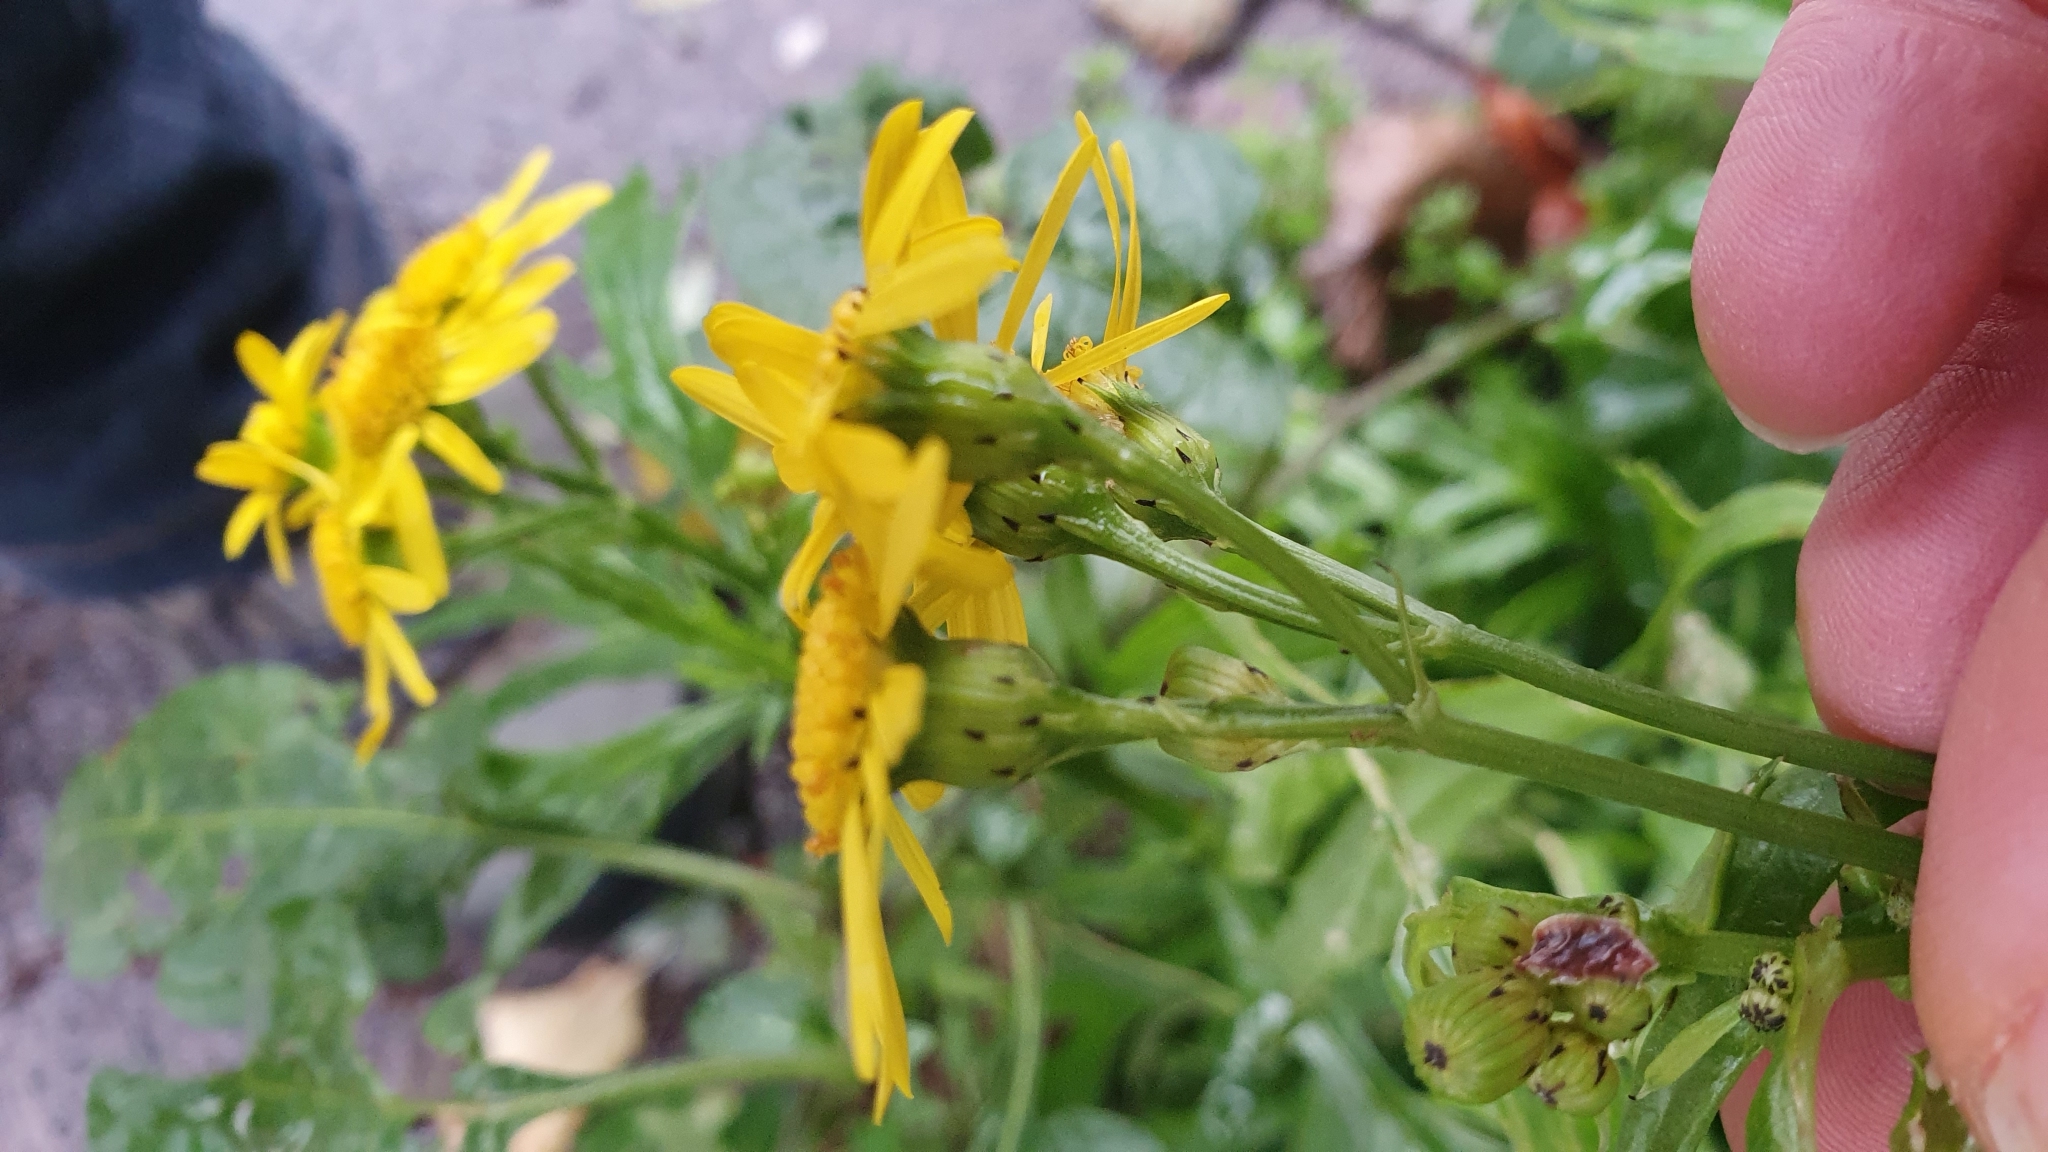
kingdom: Plantae
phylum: Tracheophyta
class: Magnoliopsida
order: Asterales
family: Asteraceae
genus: Senecio
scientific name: Senecio squalidus
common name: Oxford ragwort
